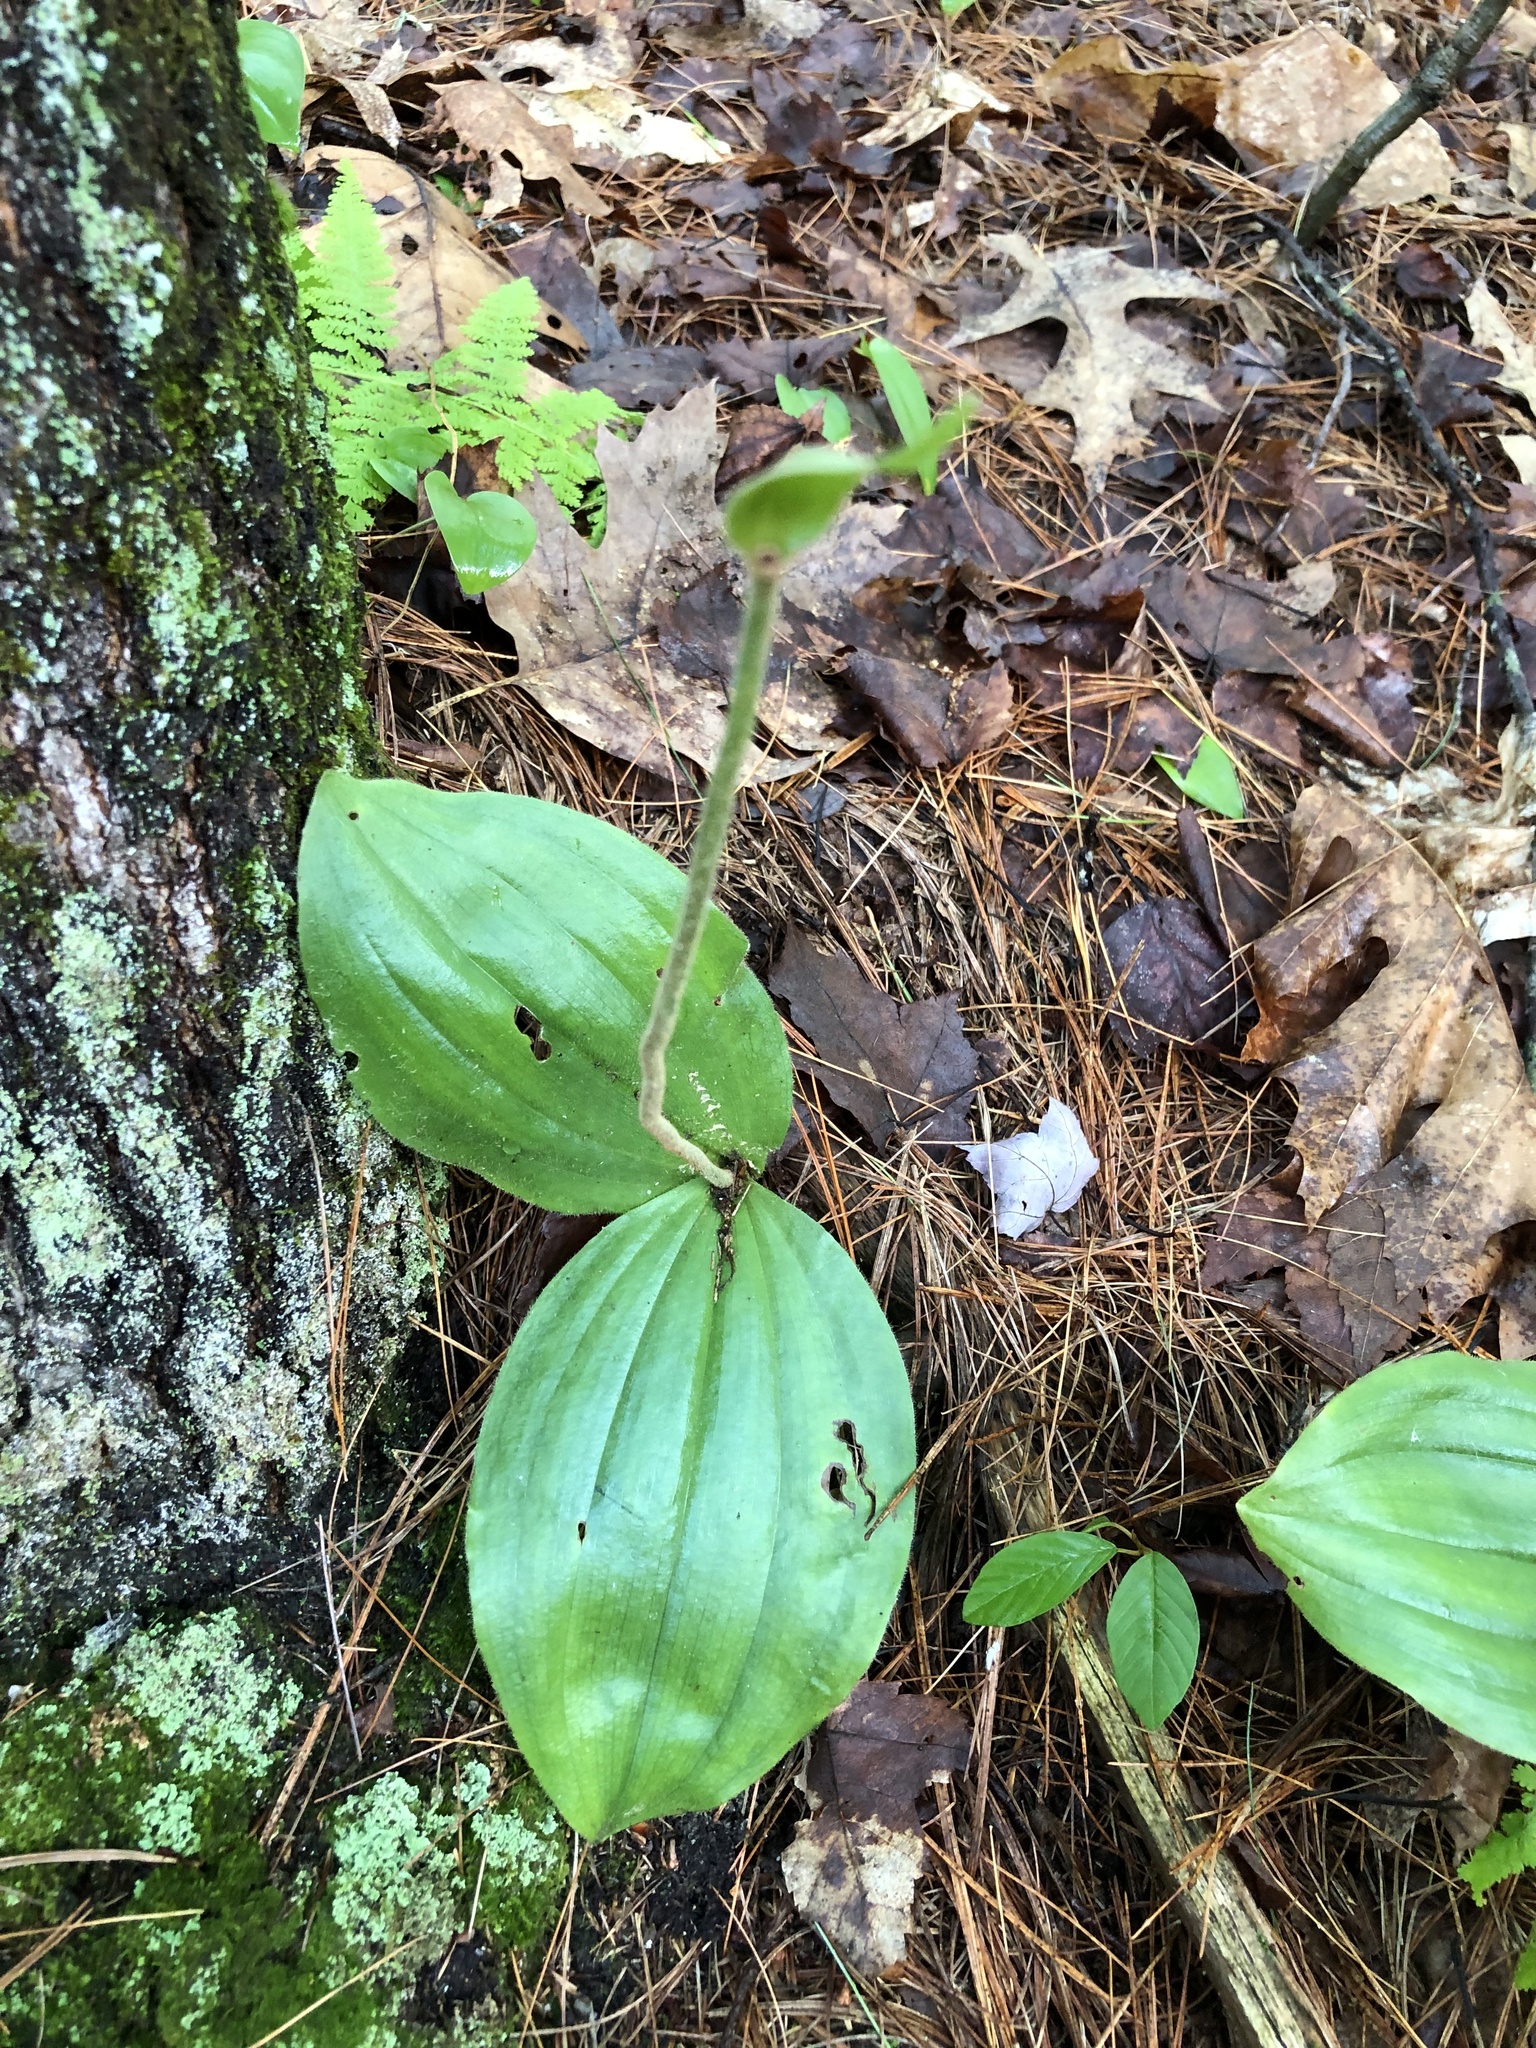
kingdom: Plantae
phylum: Tracheophyta
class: Liliopsida
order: Asparagales
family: Orchidaceae
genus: Cypripedium
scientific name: Cypripedium acaule
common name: Pink lady's-slipper
